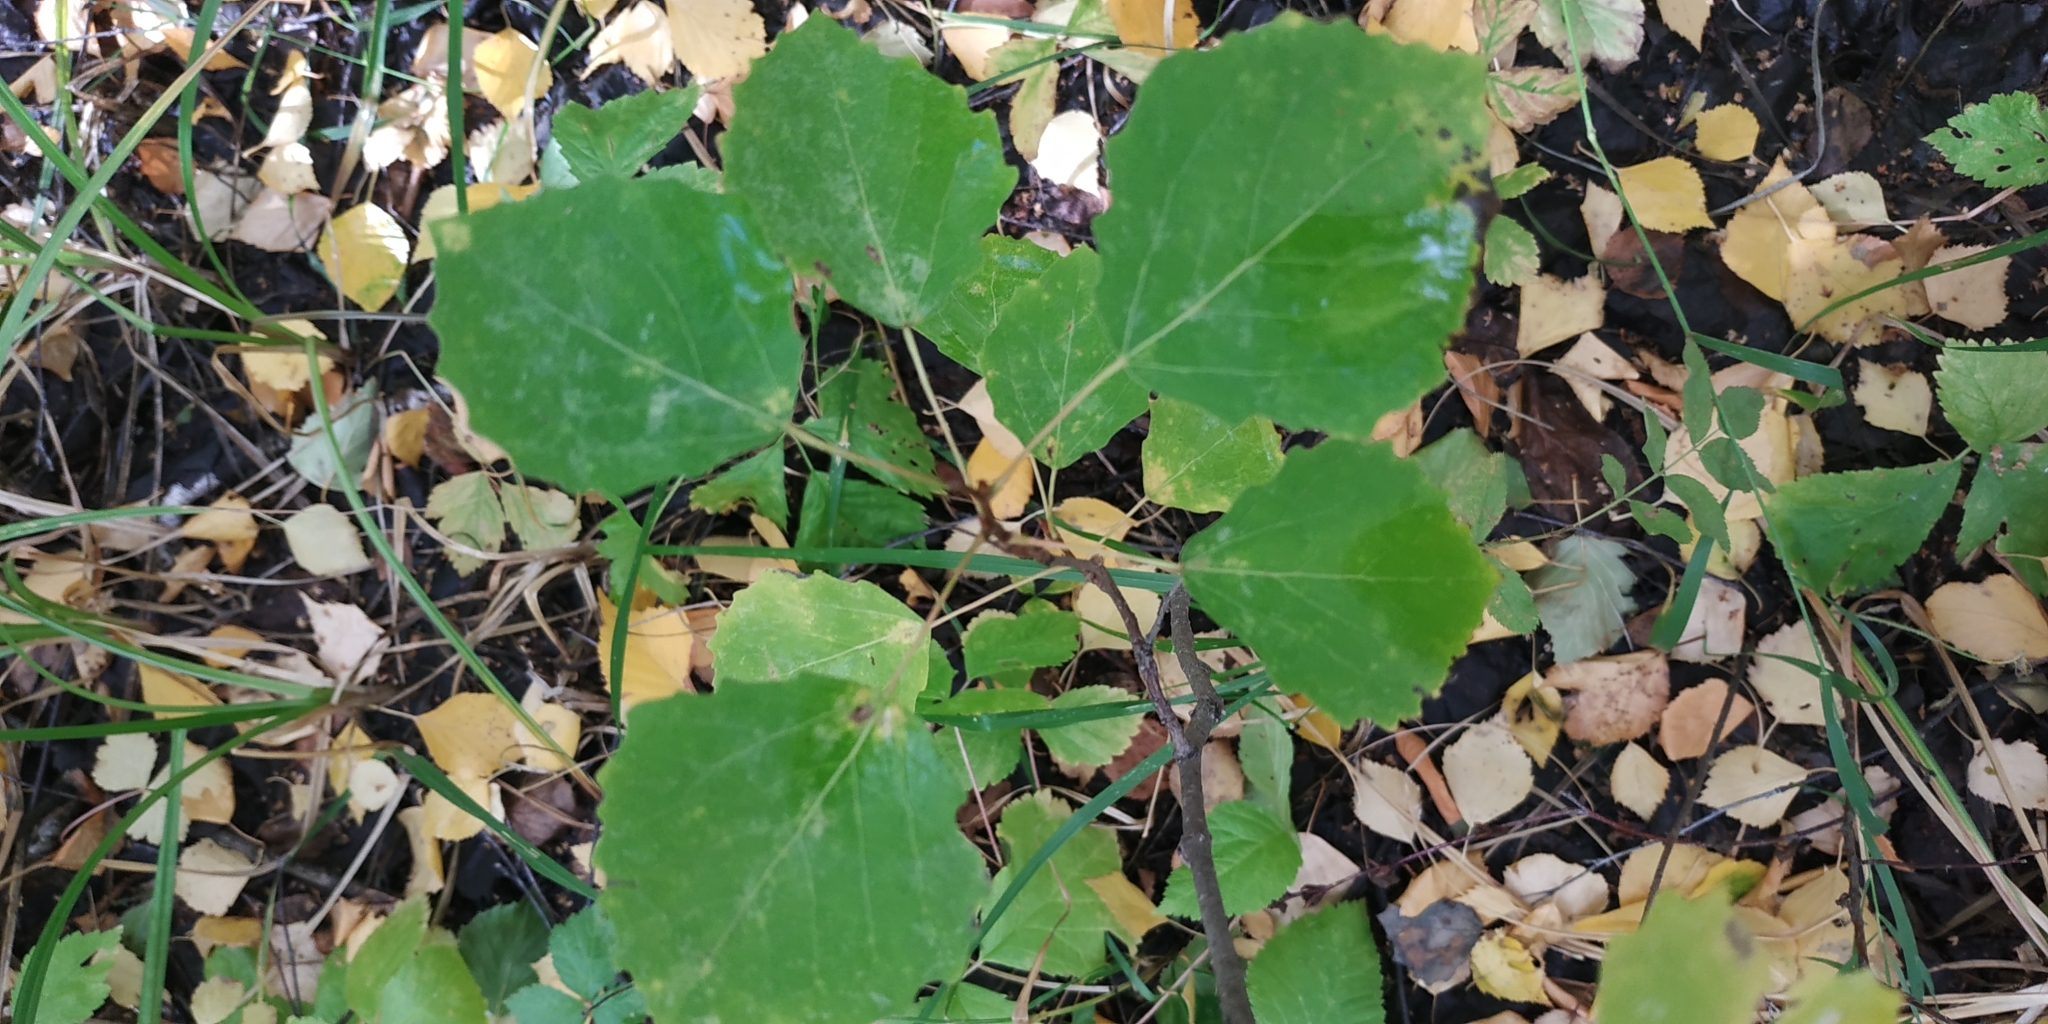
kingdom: Plantae
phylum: Tracheophyta
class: Magnoliopsida
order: Malpighiales
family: Salicaceae
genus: Populus
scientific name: Populus tremula
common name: European aspen
